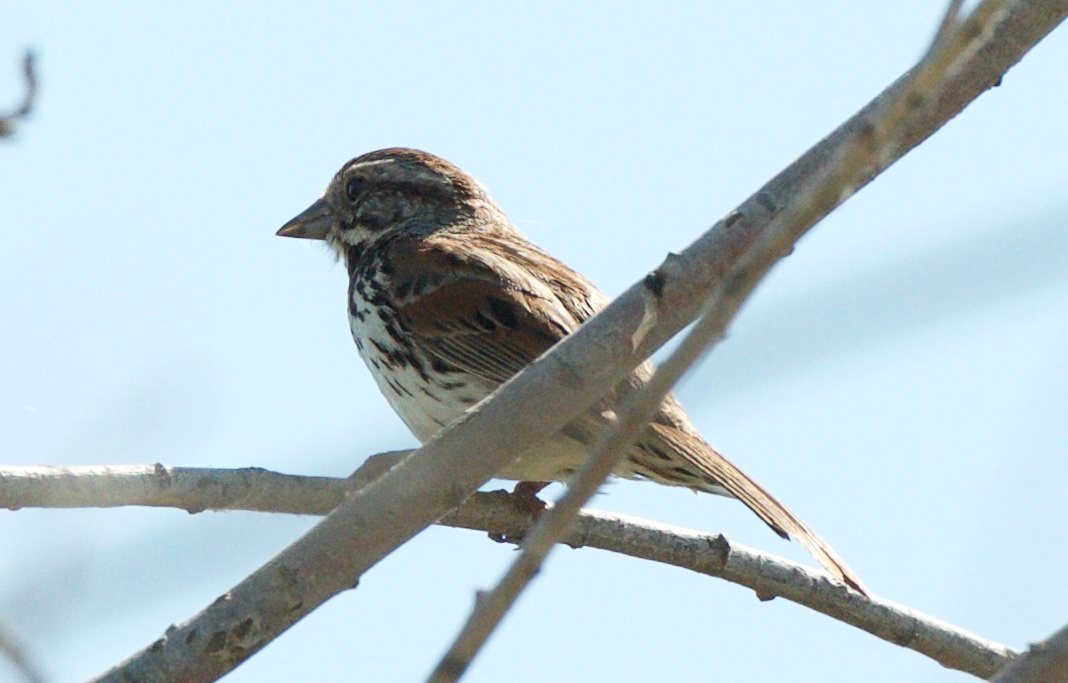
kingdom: Animalia
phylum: Chordata
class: Aves
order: Passeriformes
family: Passerellidae
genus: Melospiza
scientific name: Melospiza melodia
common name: Song sparrow
